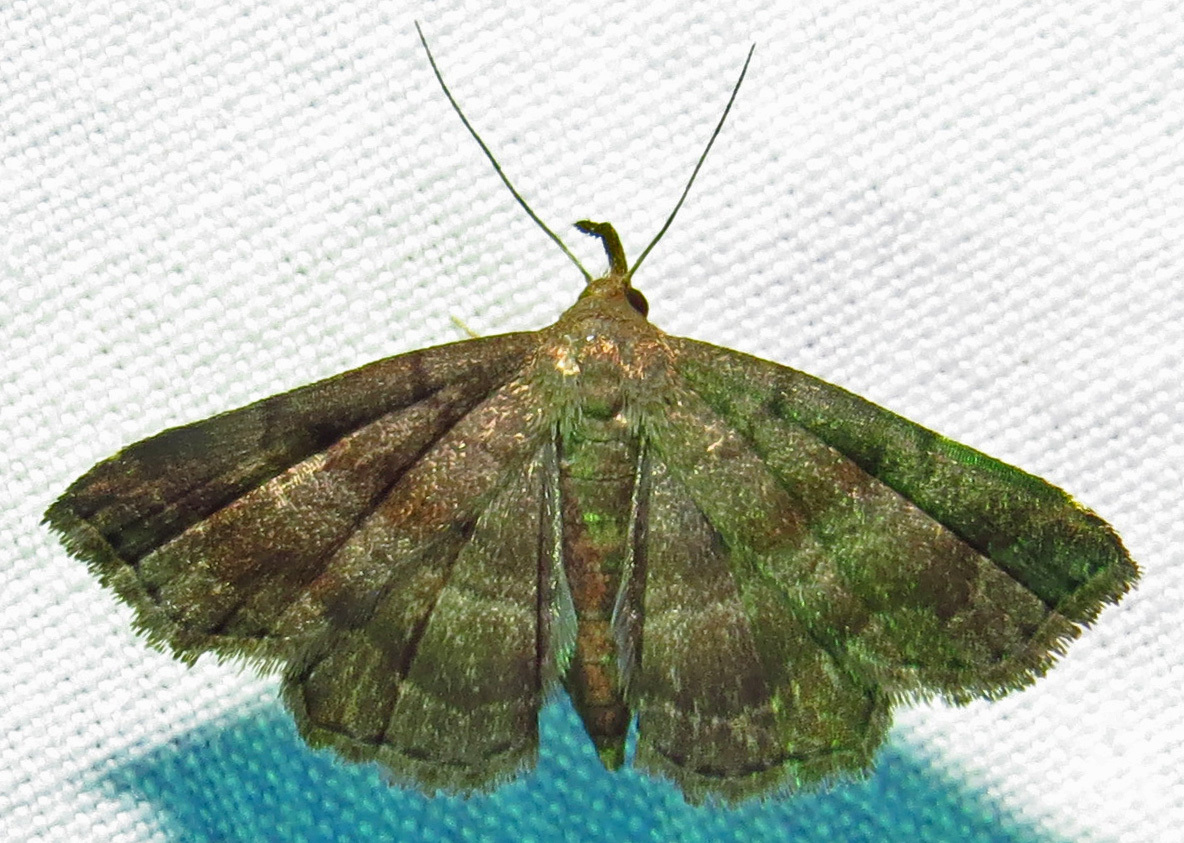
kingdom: Animalia
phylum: Arthropoda
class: Insecta
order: Lepidoptera
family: Erebidae
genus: Phalaenostola
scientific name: Phalaenostola larentioides
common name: Black-banded owlet
